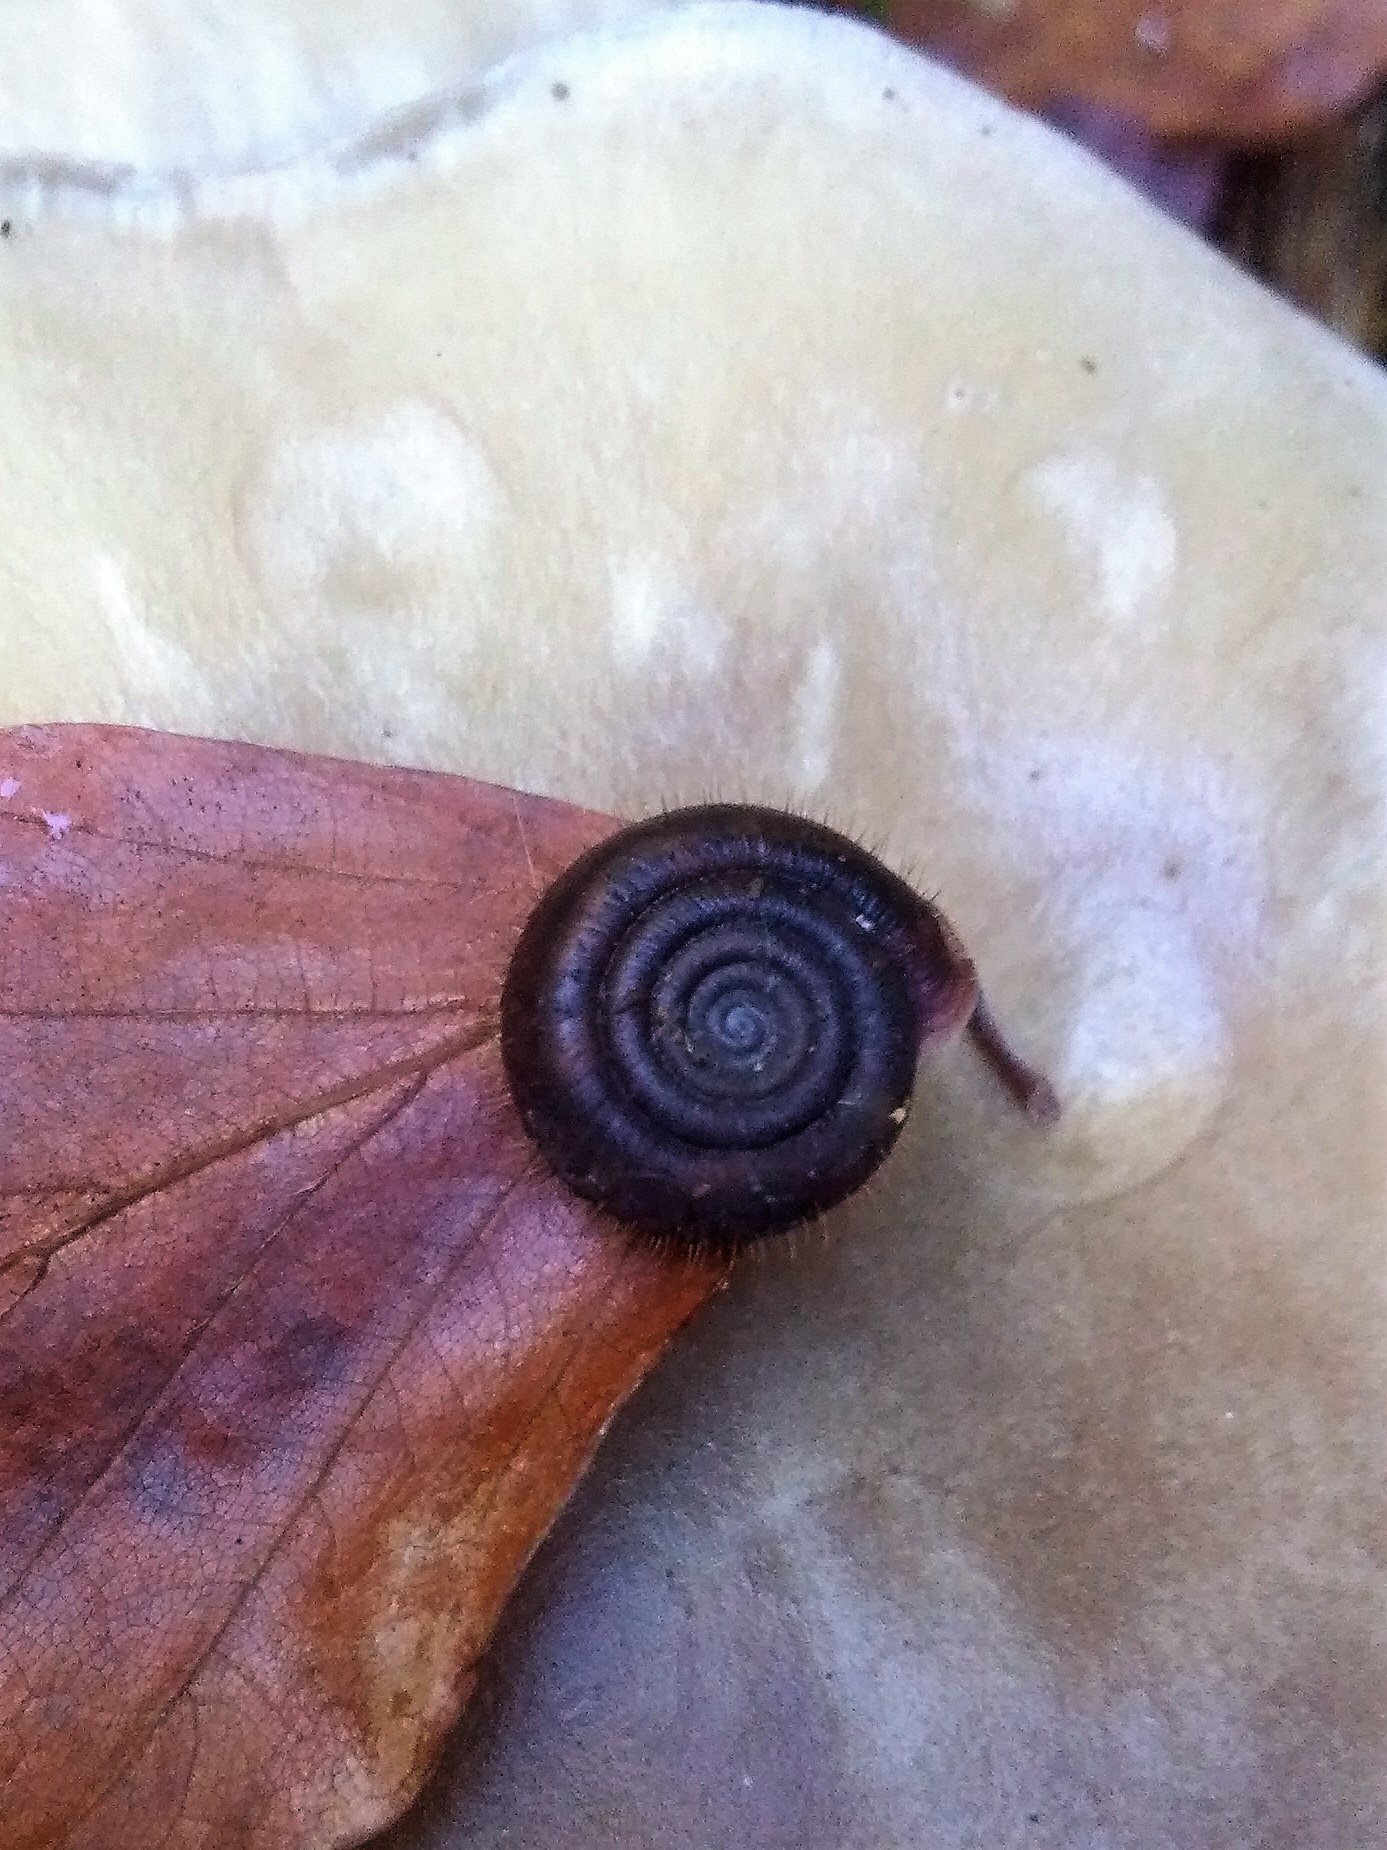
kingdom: Animalia
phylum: Mollusca
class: Gastropoda
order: Stylommatophora
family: Helicodontidae
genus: Helicodonta
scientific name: Helicodonta obvoluta
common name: Cheese snail
